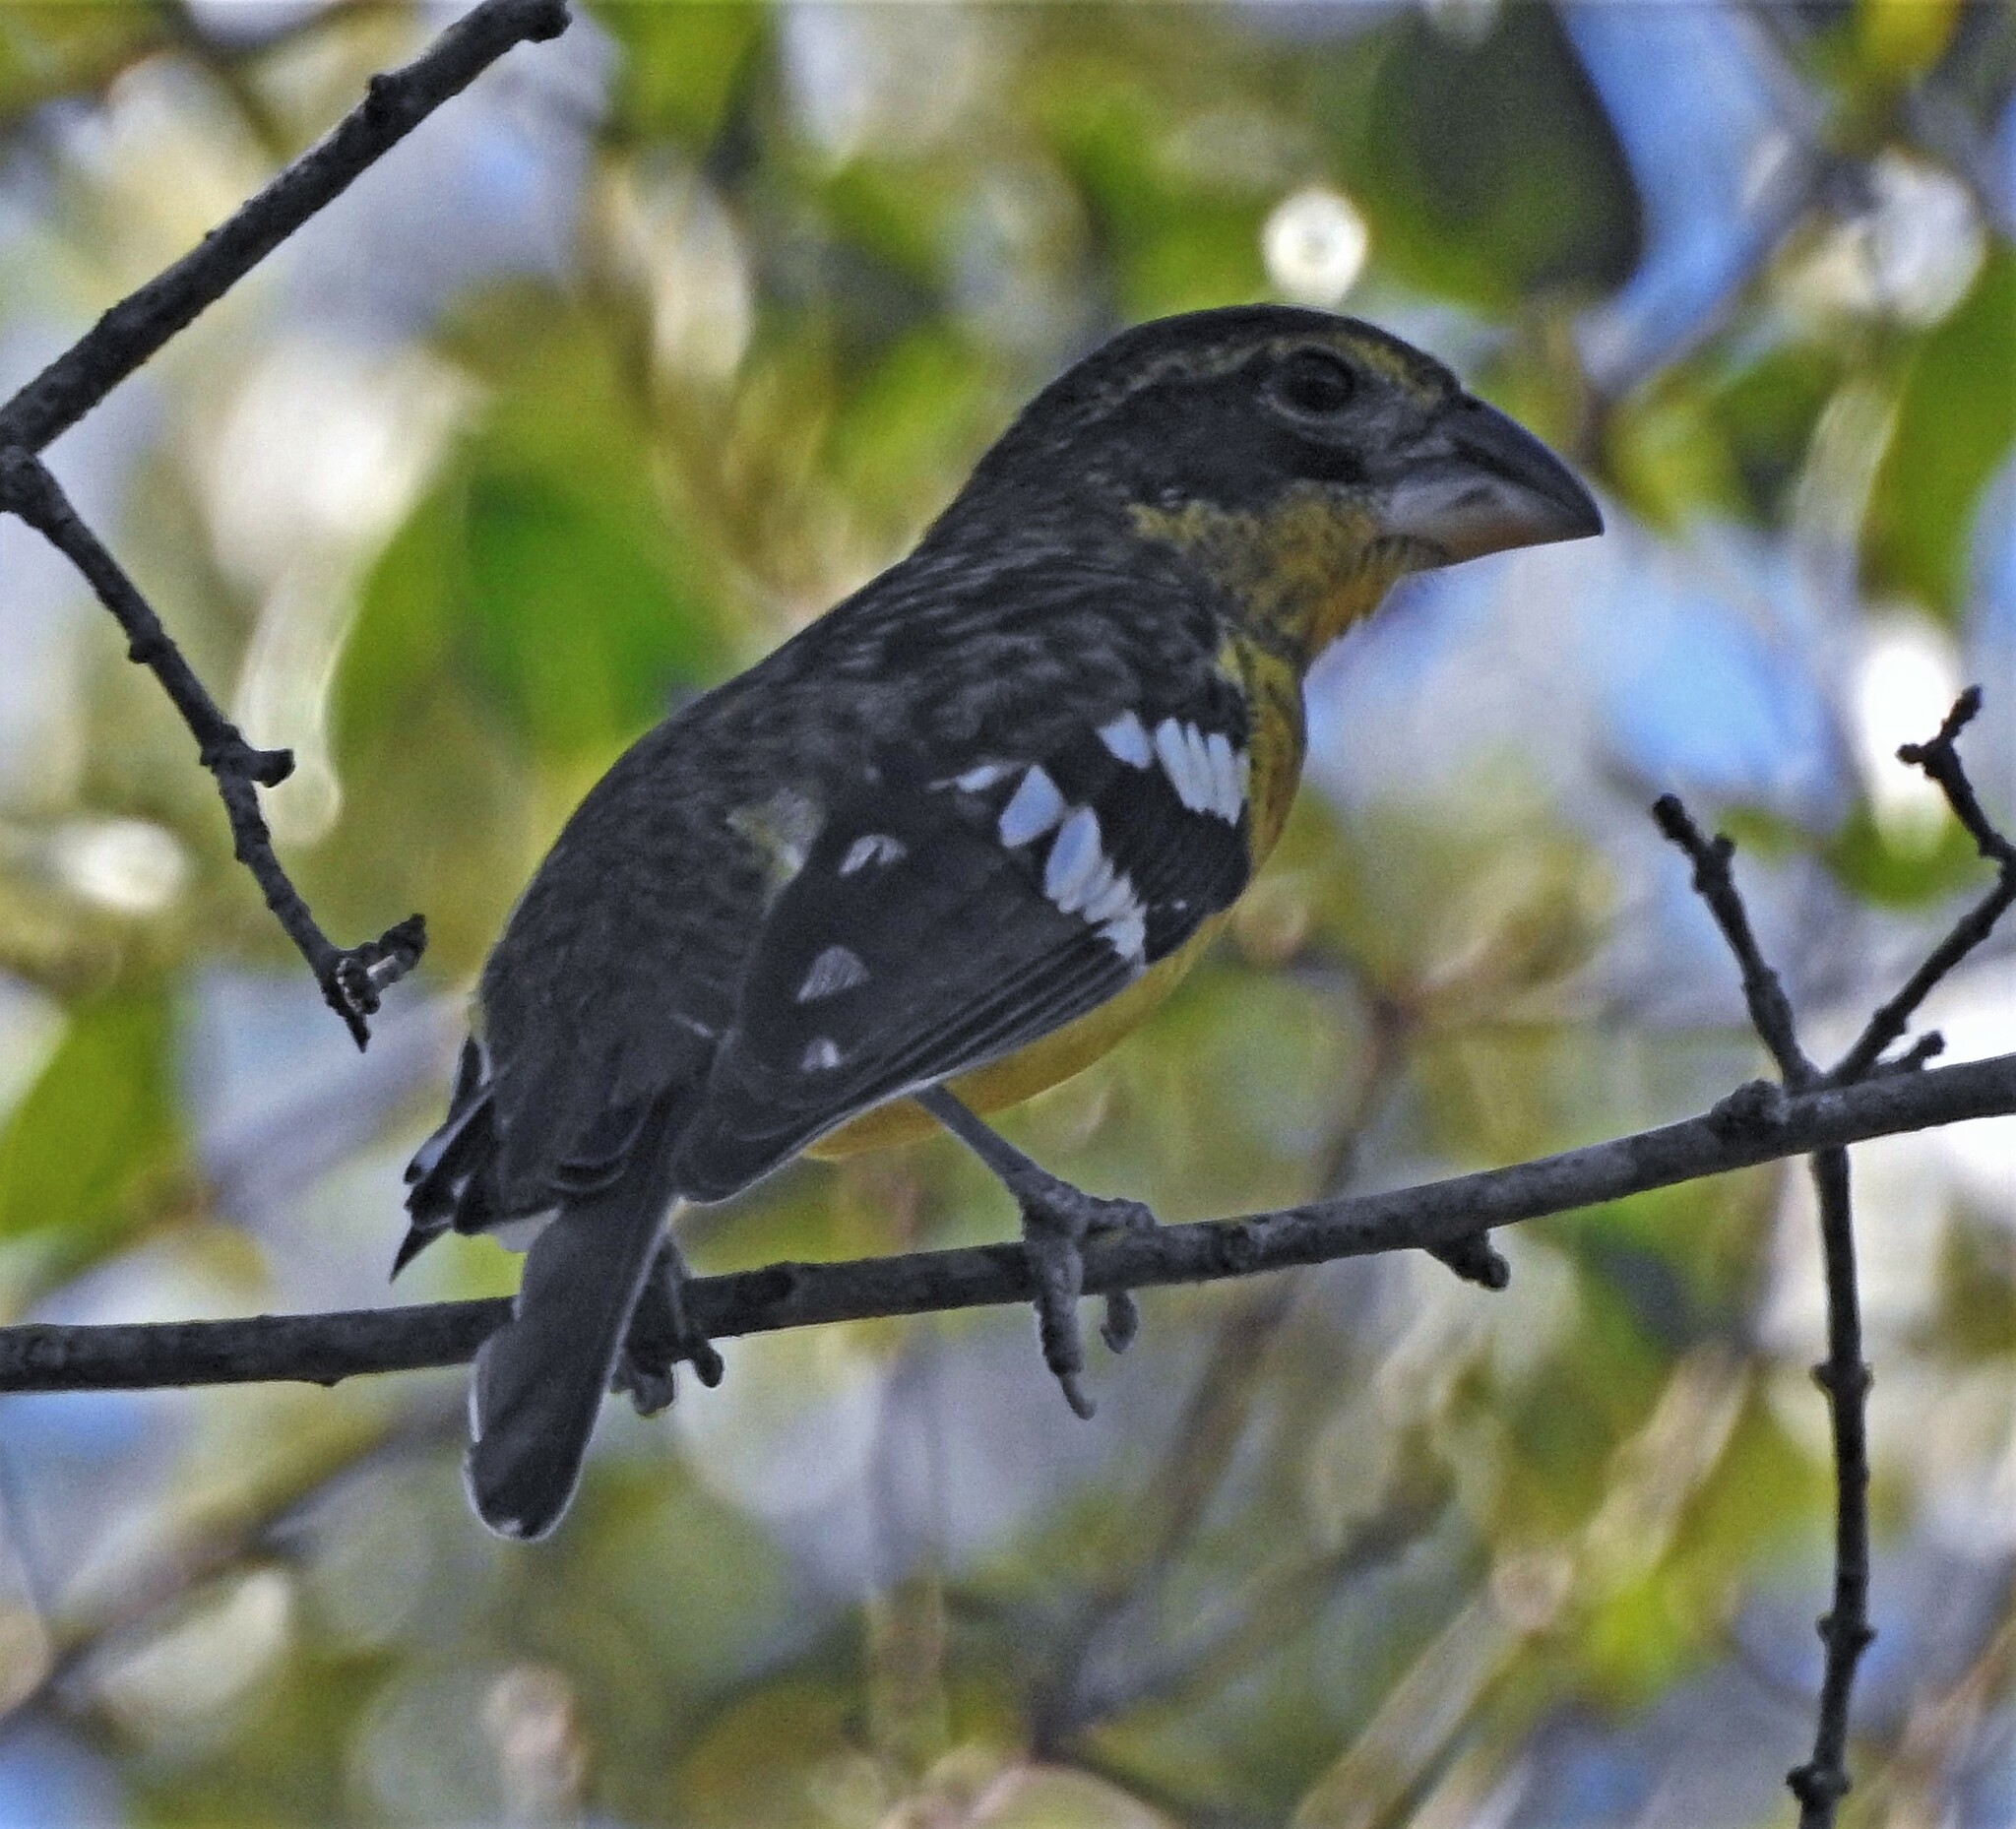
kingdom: Animalia
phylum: Chordata
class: Aves
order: Passeriformes
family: Cardinalidae
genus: Pheucticus
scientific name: Pheucticus aureoventris
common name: Black-backed grosbeak
